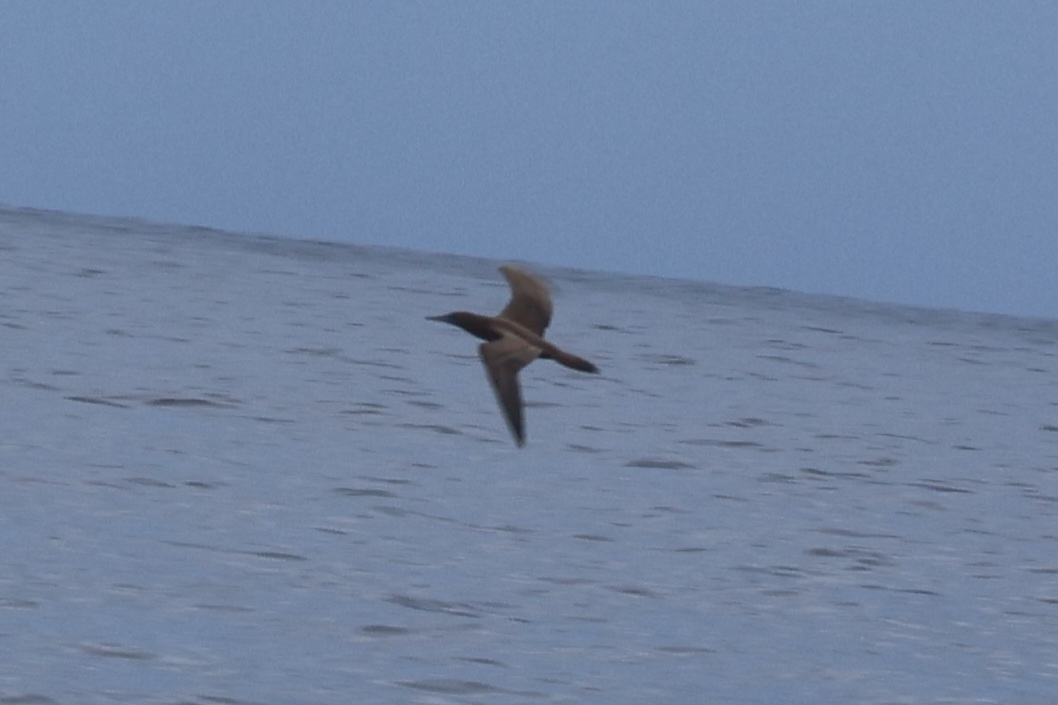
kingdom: Animalia
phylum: Chordata
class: Aves
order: Suliformes
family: Sulidae
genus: Sula
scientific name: Sula leucogaster
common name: Brown booby
